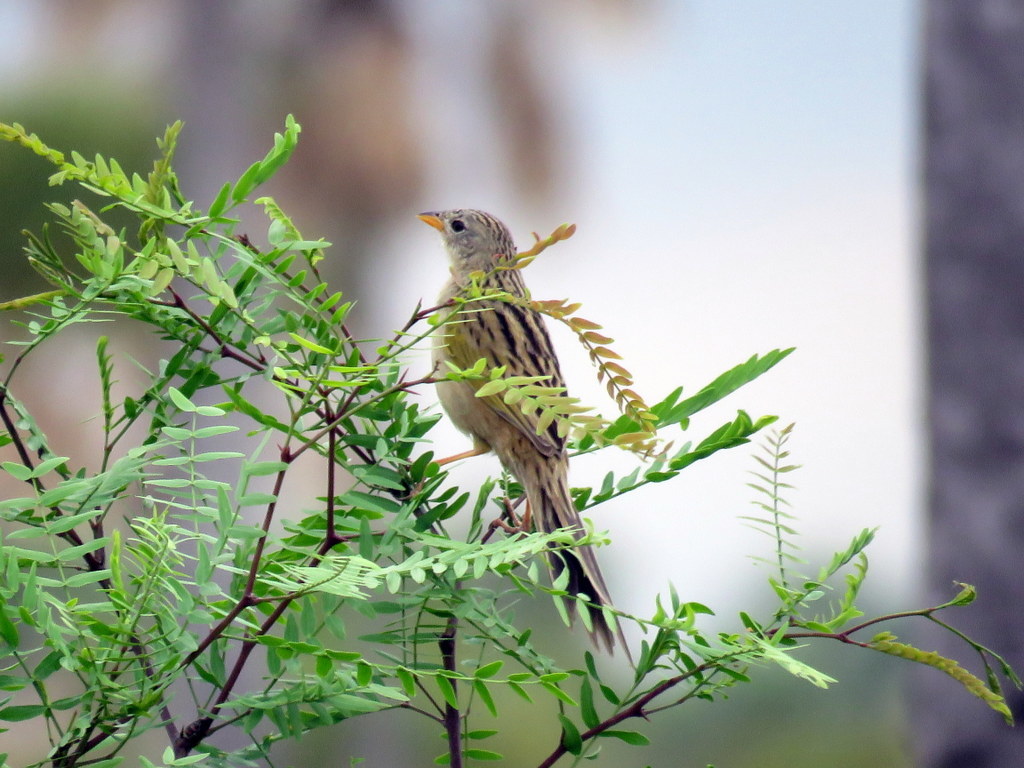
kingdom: Animalia
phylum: Chordata
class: Aves
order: Passeriformes
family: Thraupidae
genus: Emberizoides
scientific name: Emberizoides herbicola
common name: Wedge-tailed grass-finch
